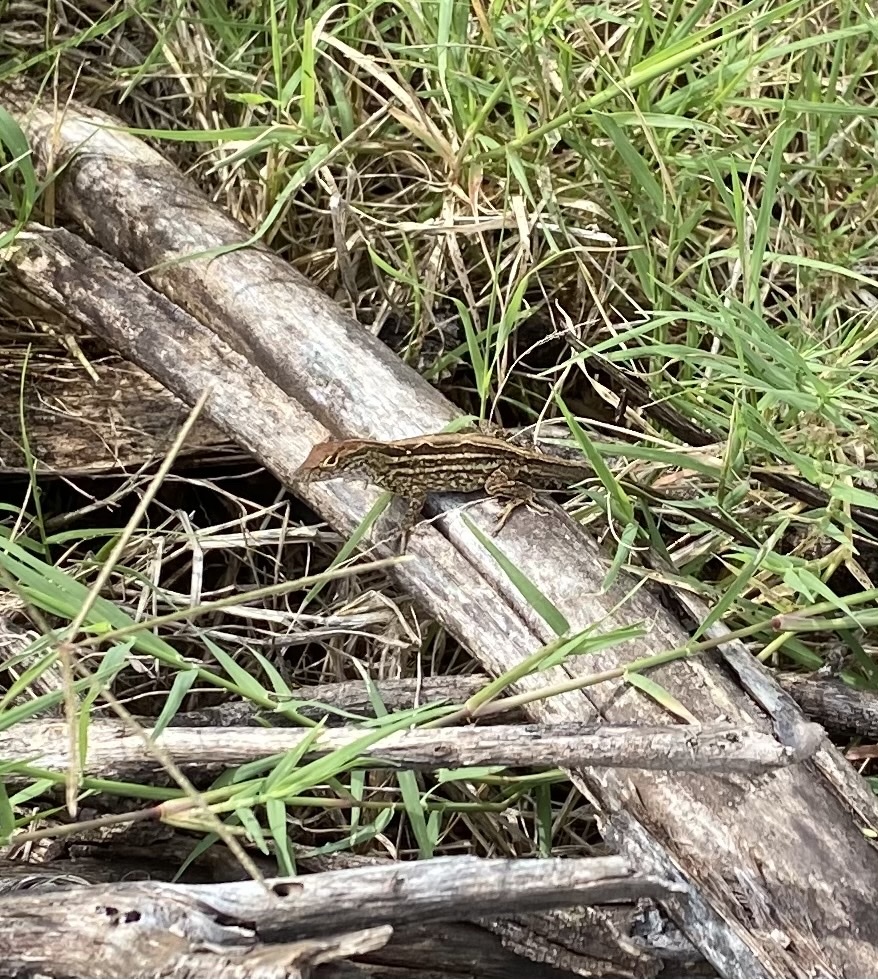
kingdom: Animalia
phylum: Chordata
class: Squamata
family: Dactyloidae
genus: Anolis
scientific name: Anolis sagrei
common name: Brown anole
